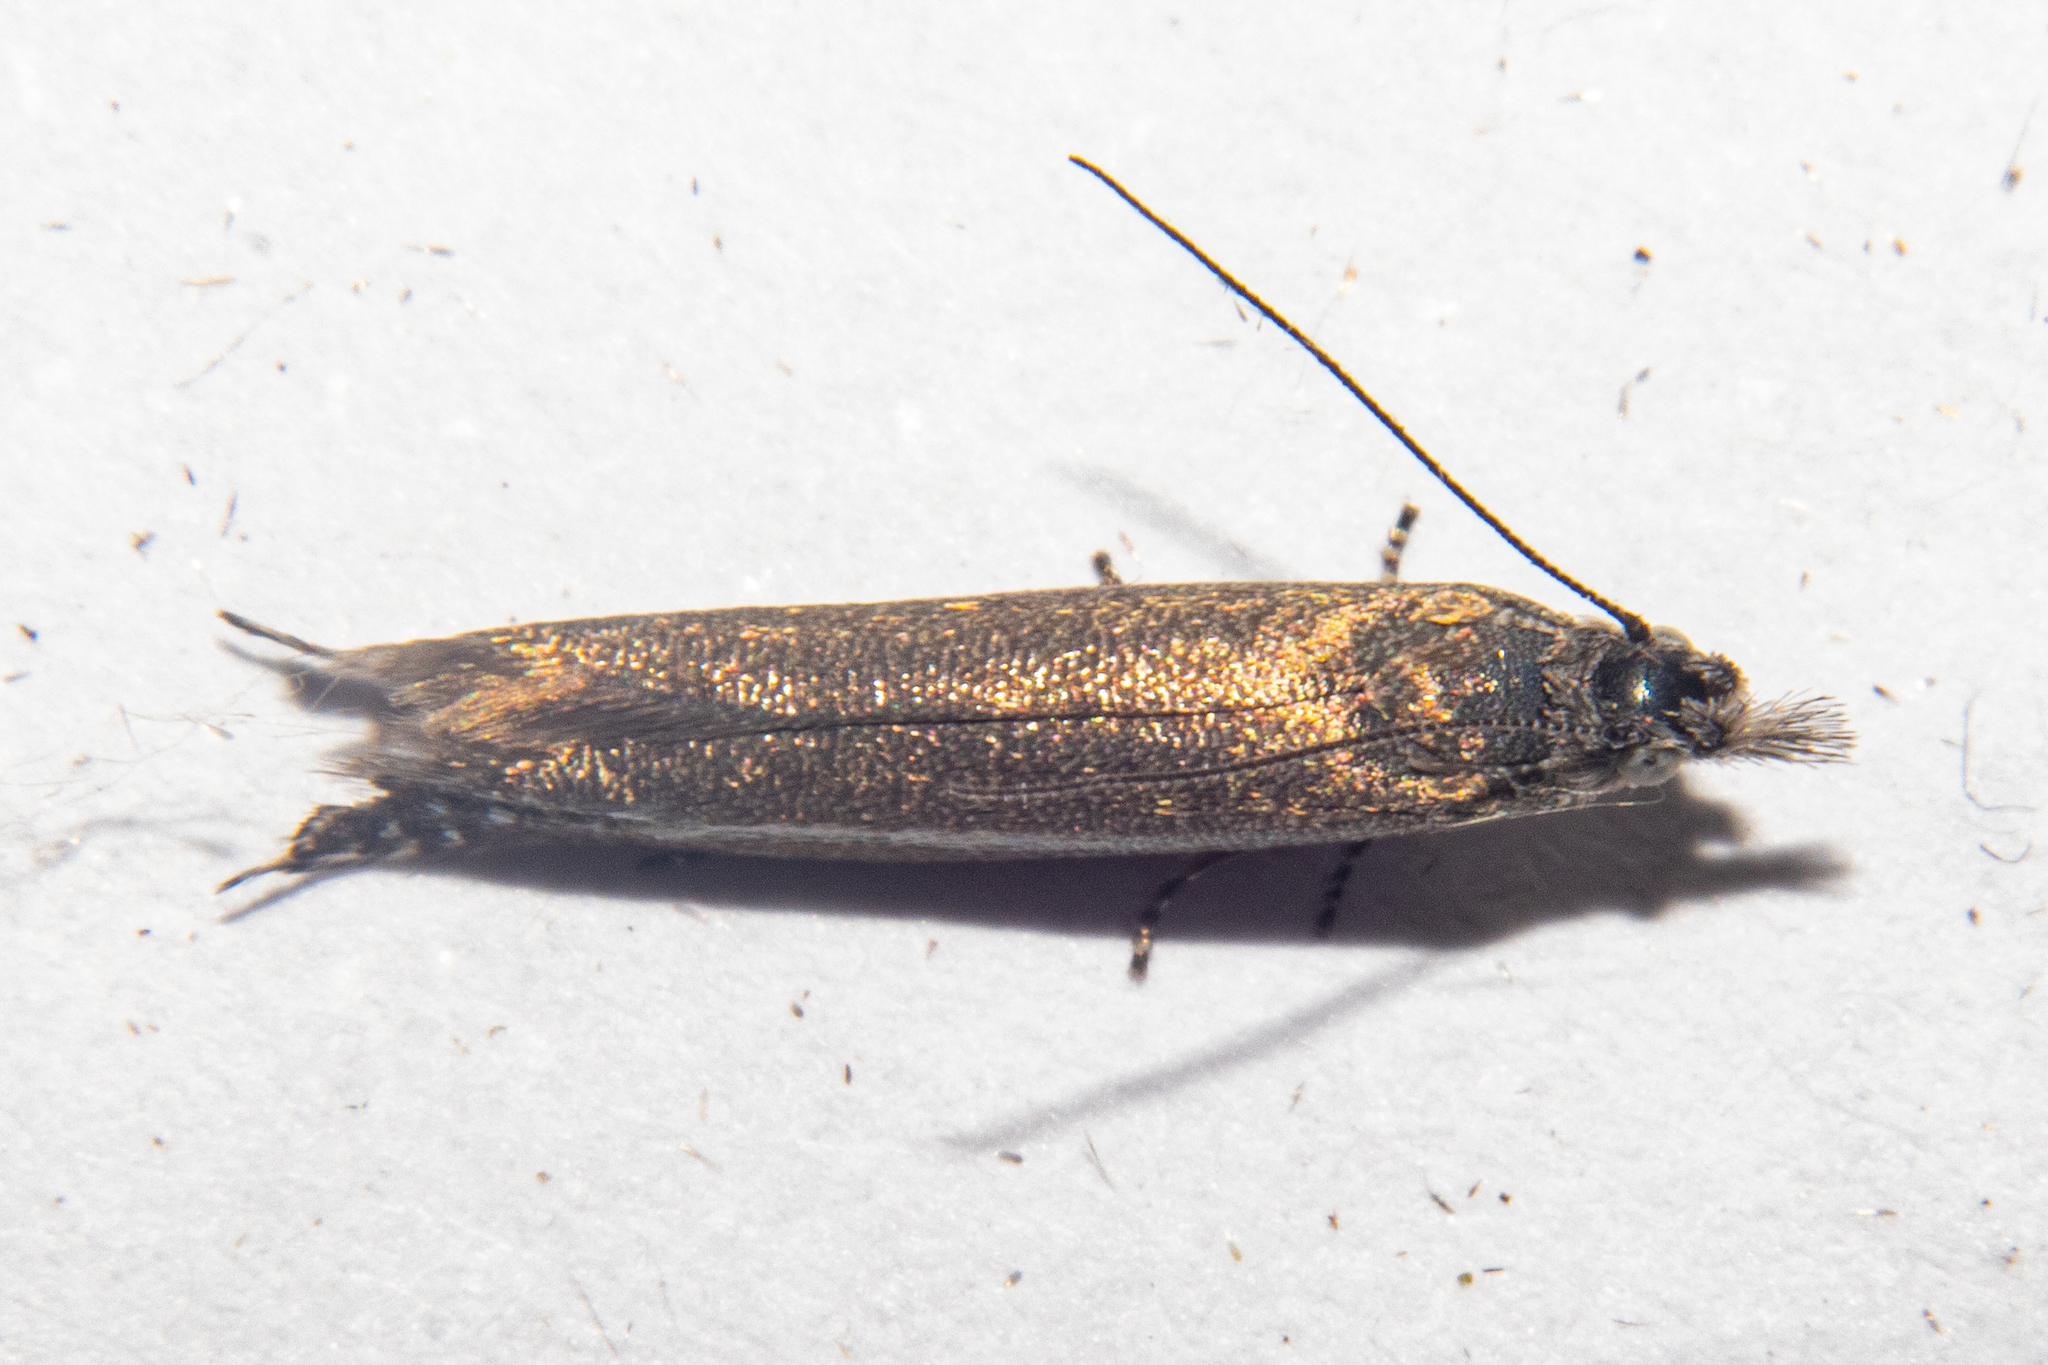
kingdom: Animalia
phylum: Arthropoda
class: Insecta
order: Lepidoptera
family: Glyphipterigidae
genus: Glyphipterix
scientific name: Glyphipterix barbata
